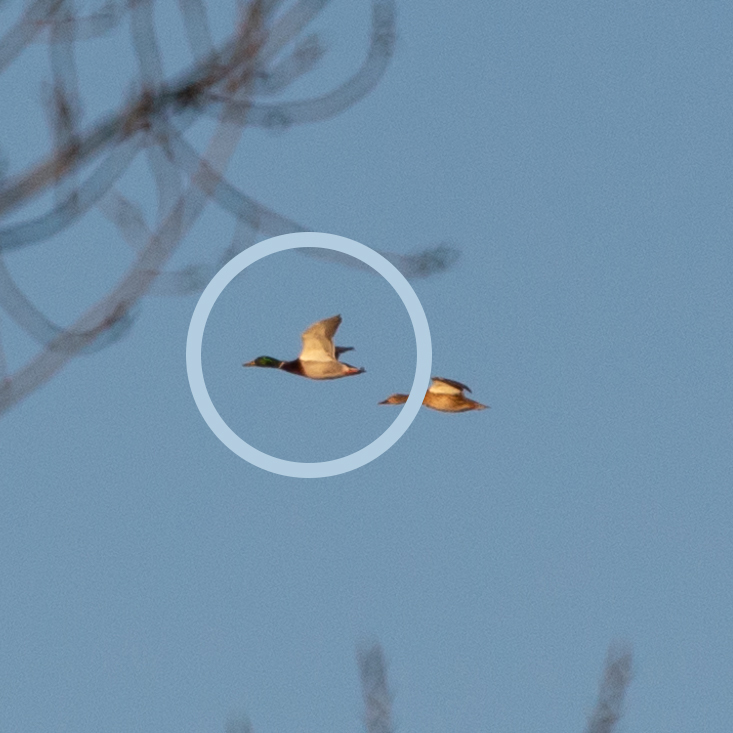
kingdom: Animalia
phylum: Chordata
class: Aves
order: Anseriformes
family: Anatidae
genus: Anas
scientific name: Anas platyrhynchos
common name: Mallard
